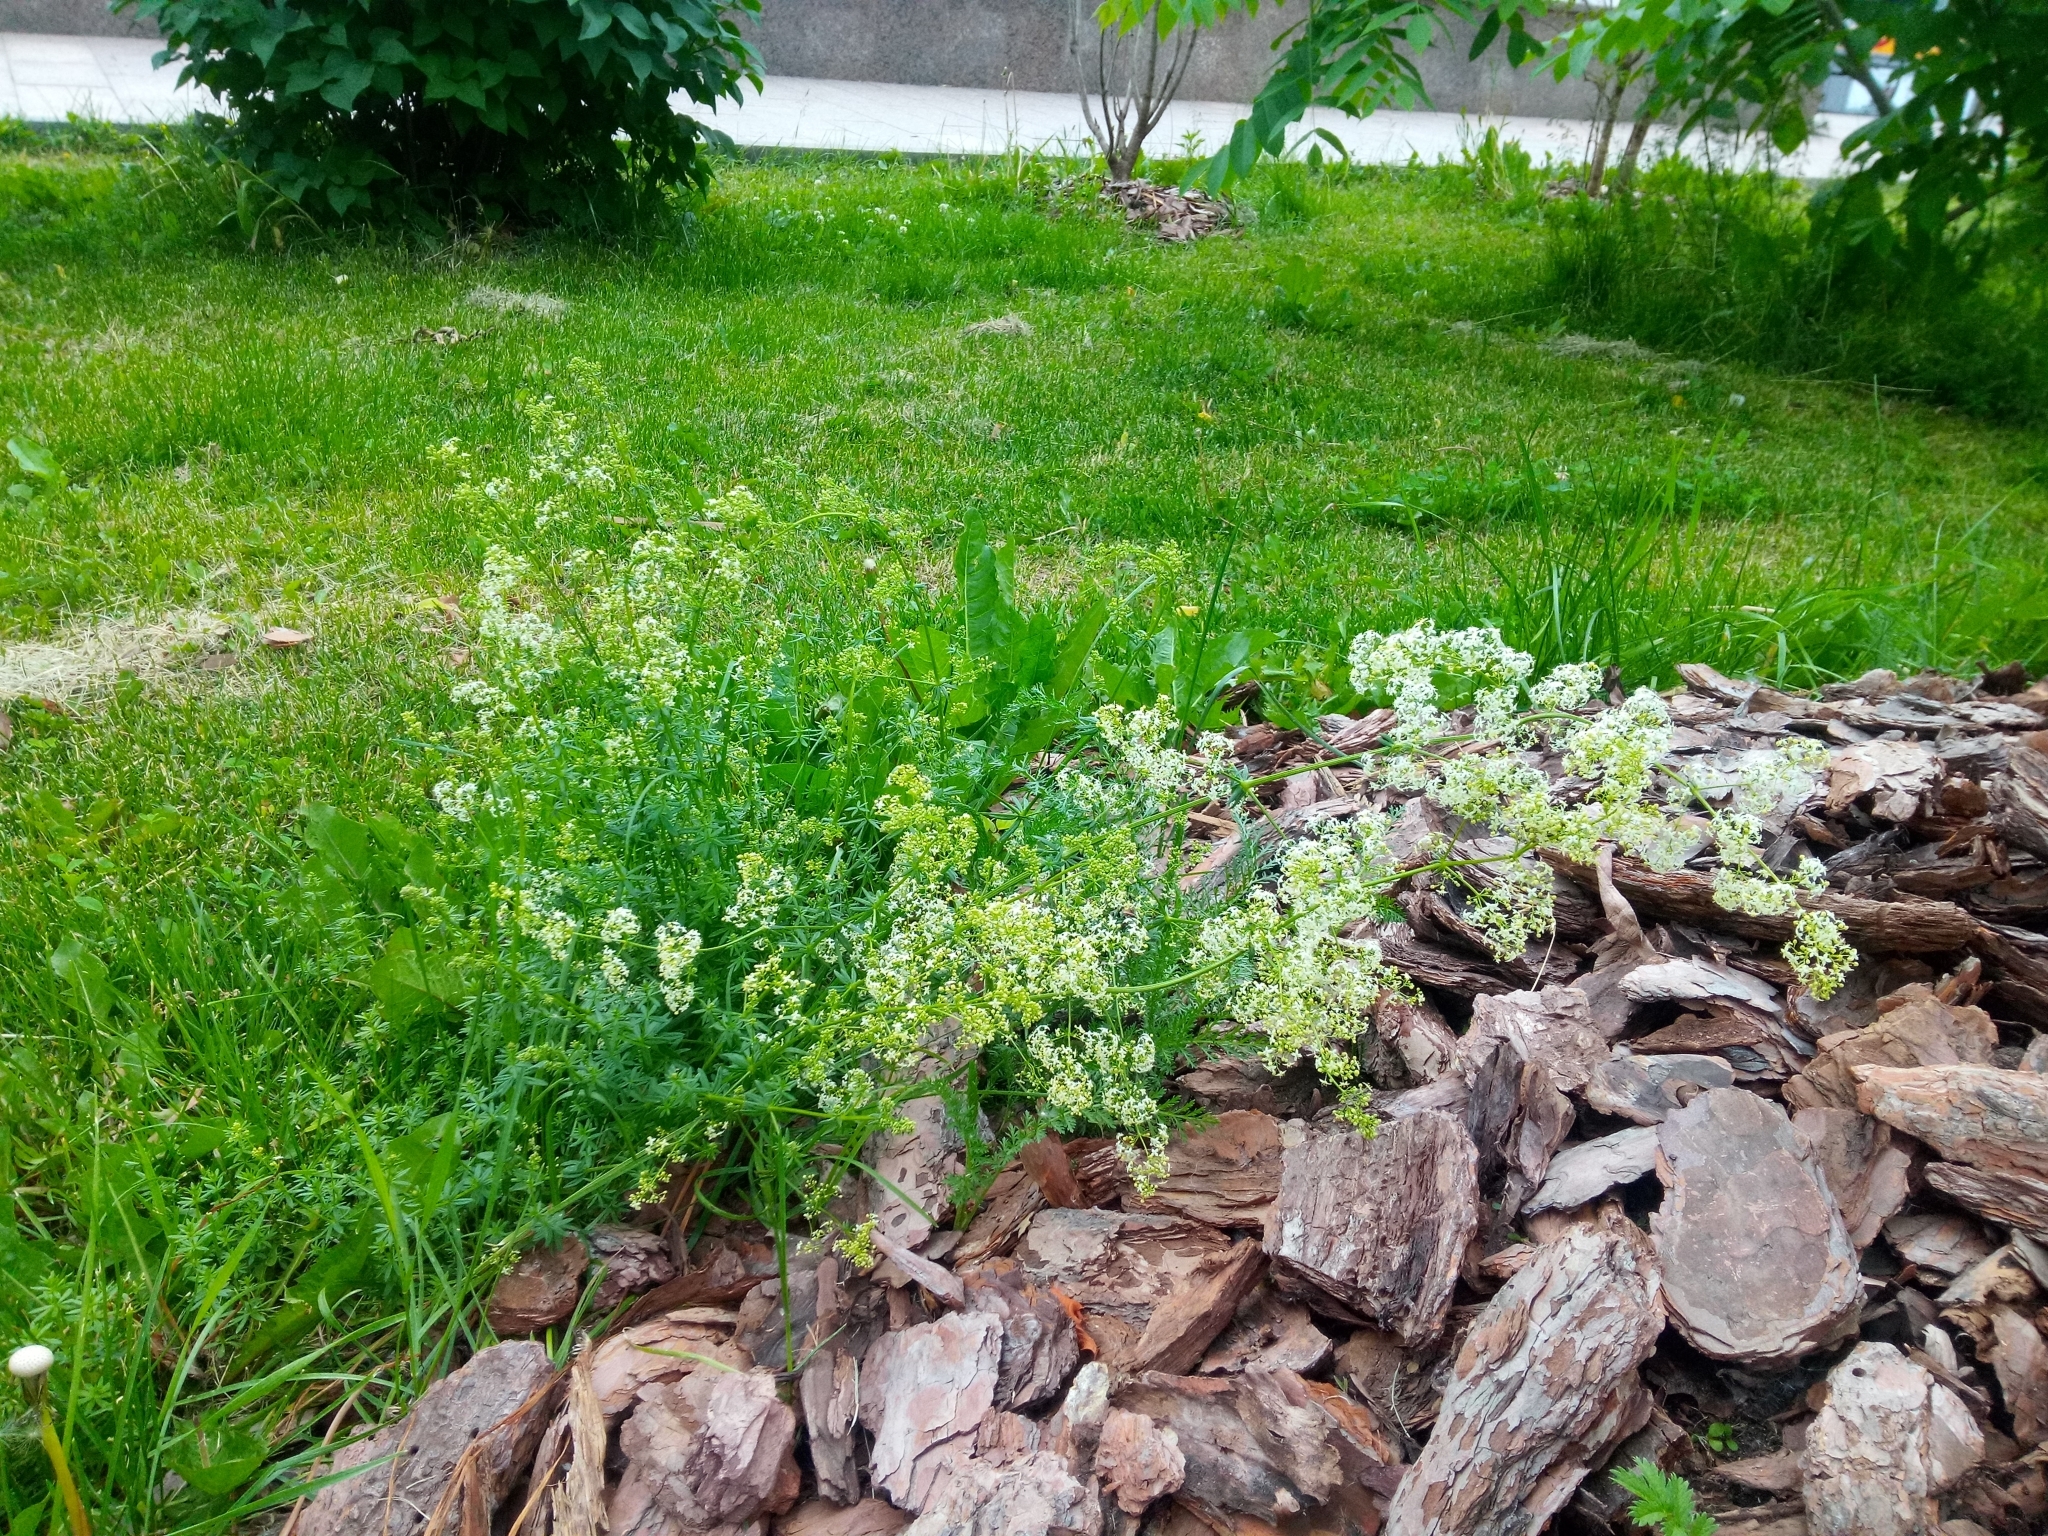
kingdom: Plantae
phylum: Tracheophyta
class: Magnoliopsida
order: Gentianales
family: Rubiaceae
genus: Galium
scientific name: Galium mollugo
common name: Hedge bedstraw
